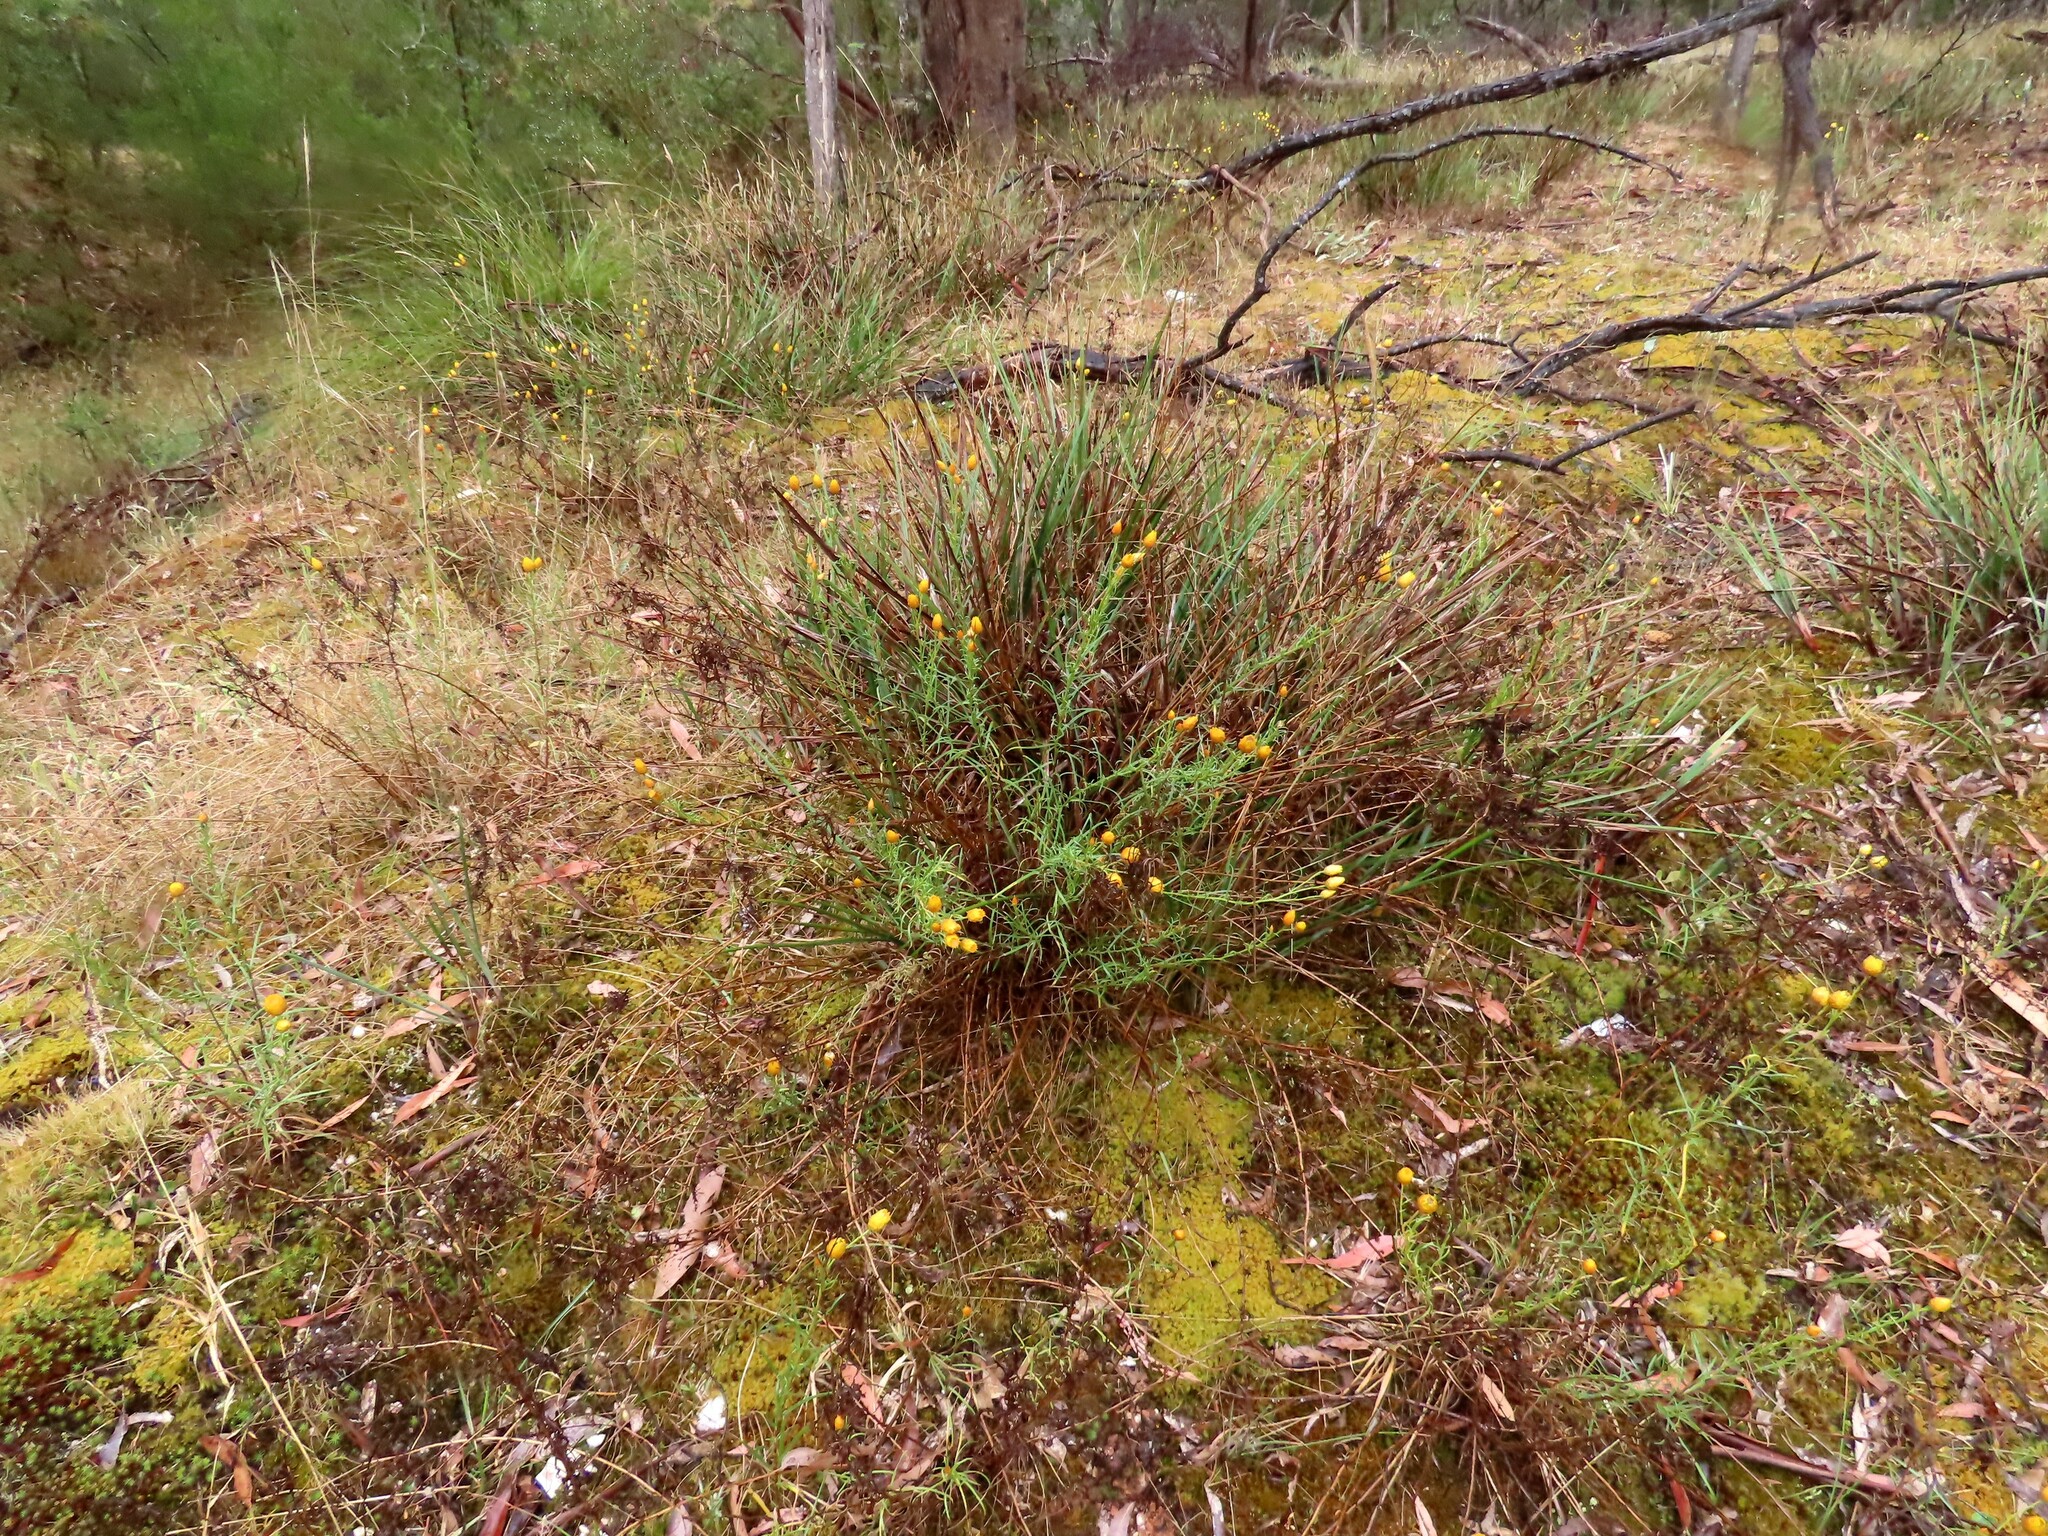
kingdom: Plantae
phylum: Tracheophyta
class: Magnoliopsida
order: Asterales
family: Asteraceae
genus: Xerochrysum
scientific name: Xerochrysum viscosum
